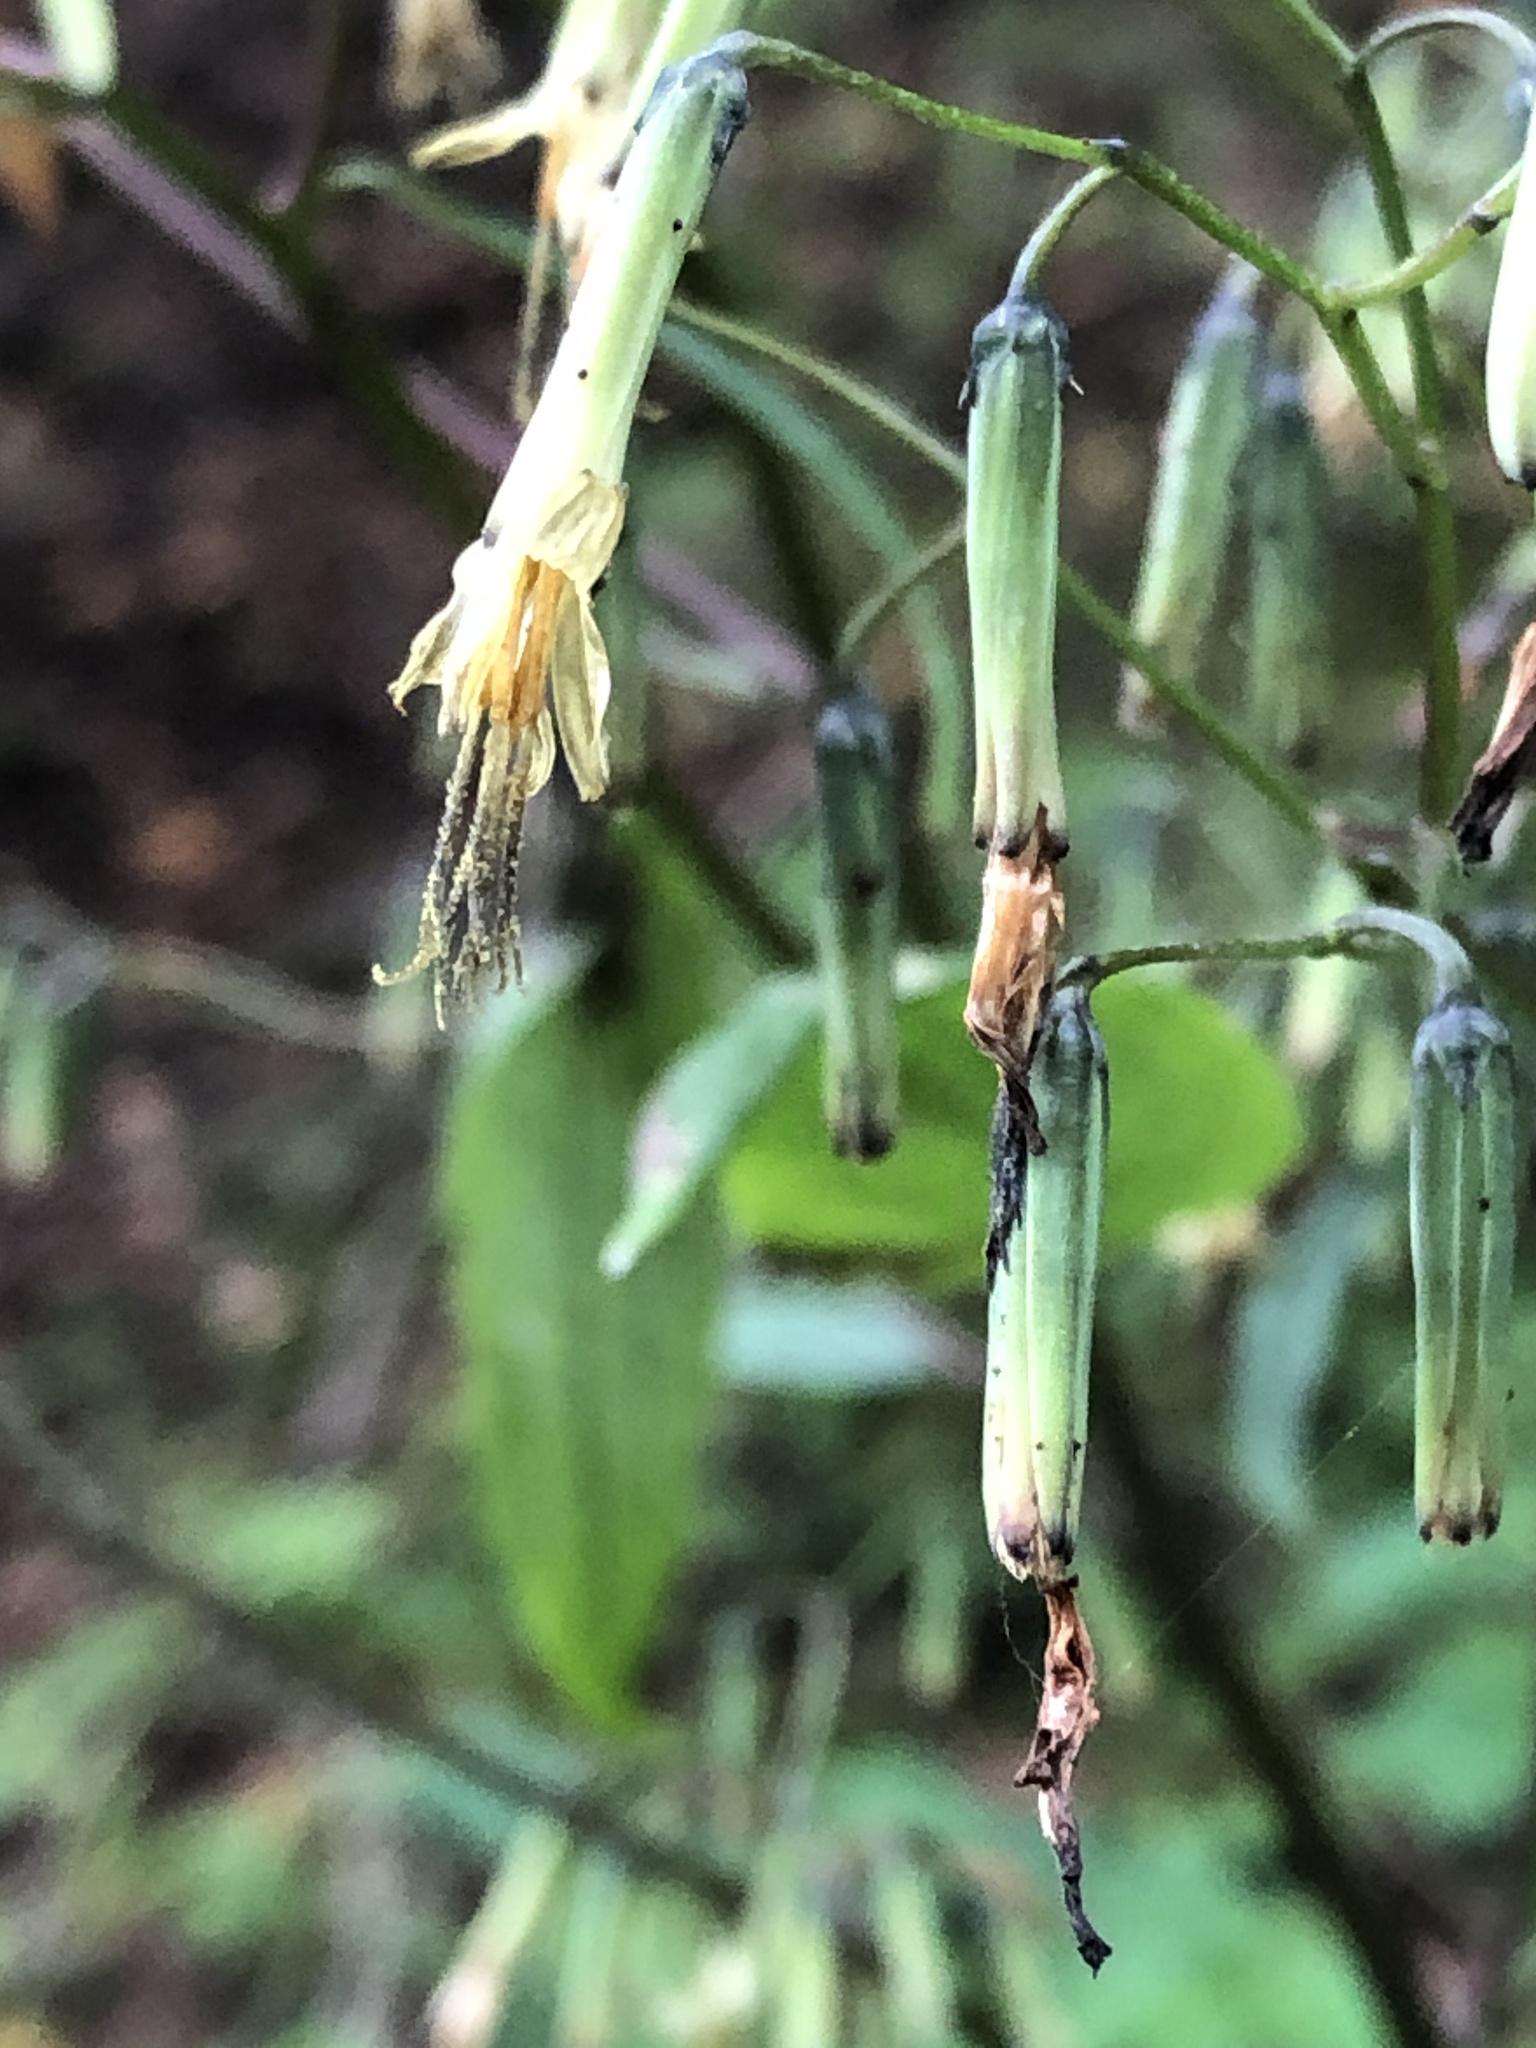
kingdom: Plantae
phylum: Tracheophyta
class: Magnoliopsida
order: Asterales
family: Asteraceae
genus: Nabalus
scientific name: Nabalus altissima
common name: Tall rattlesnakeroot
